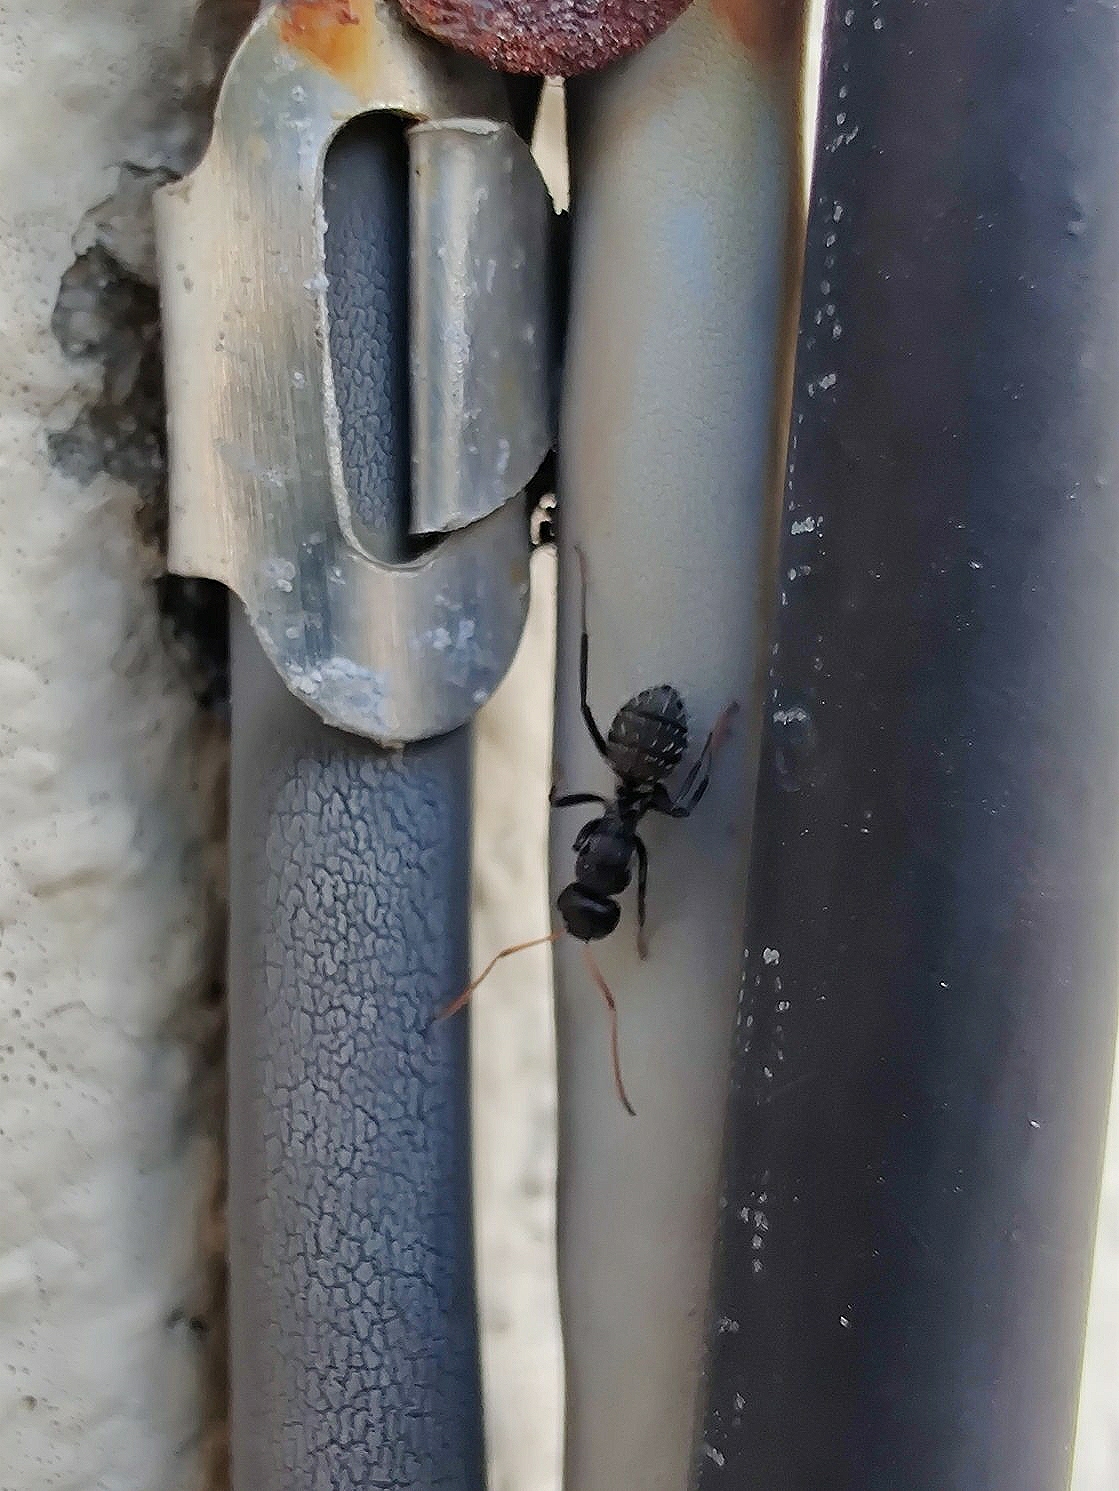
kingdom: Animalia
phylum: Arthropoda
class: Insecta
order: Hymenoptera
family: Formicidae
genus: Camponotus
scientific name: Camponotus grandidieri
